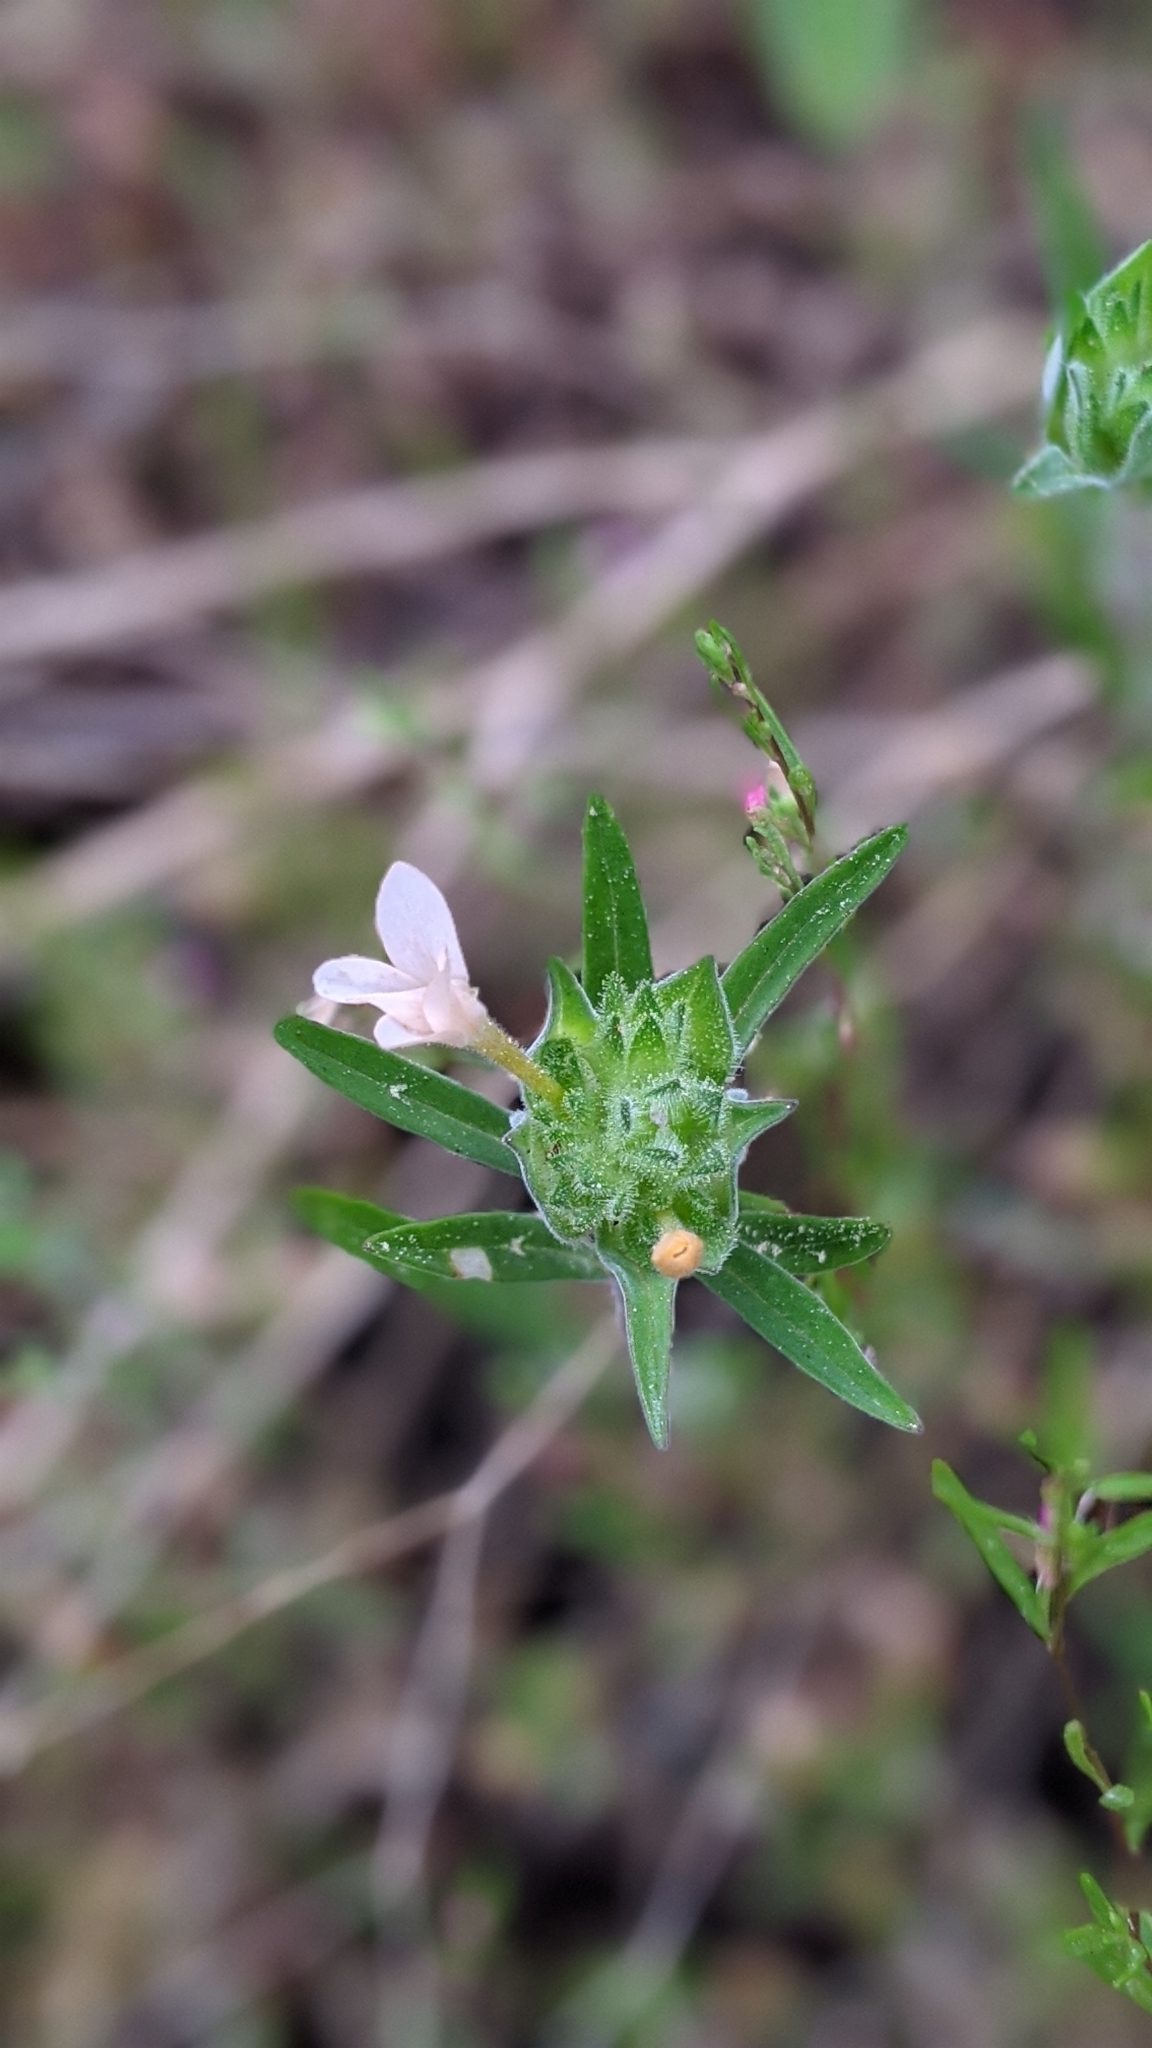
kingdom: Plantae
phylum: Tracheophyta
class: Magnoliopsida
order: Ericales
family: Polemoniaceae
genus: Collomia
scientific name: Collomia grandiflora
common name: California strawflower
